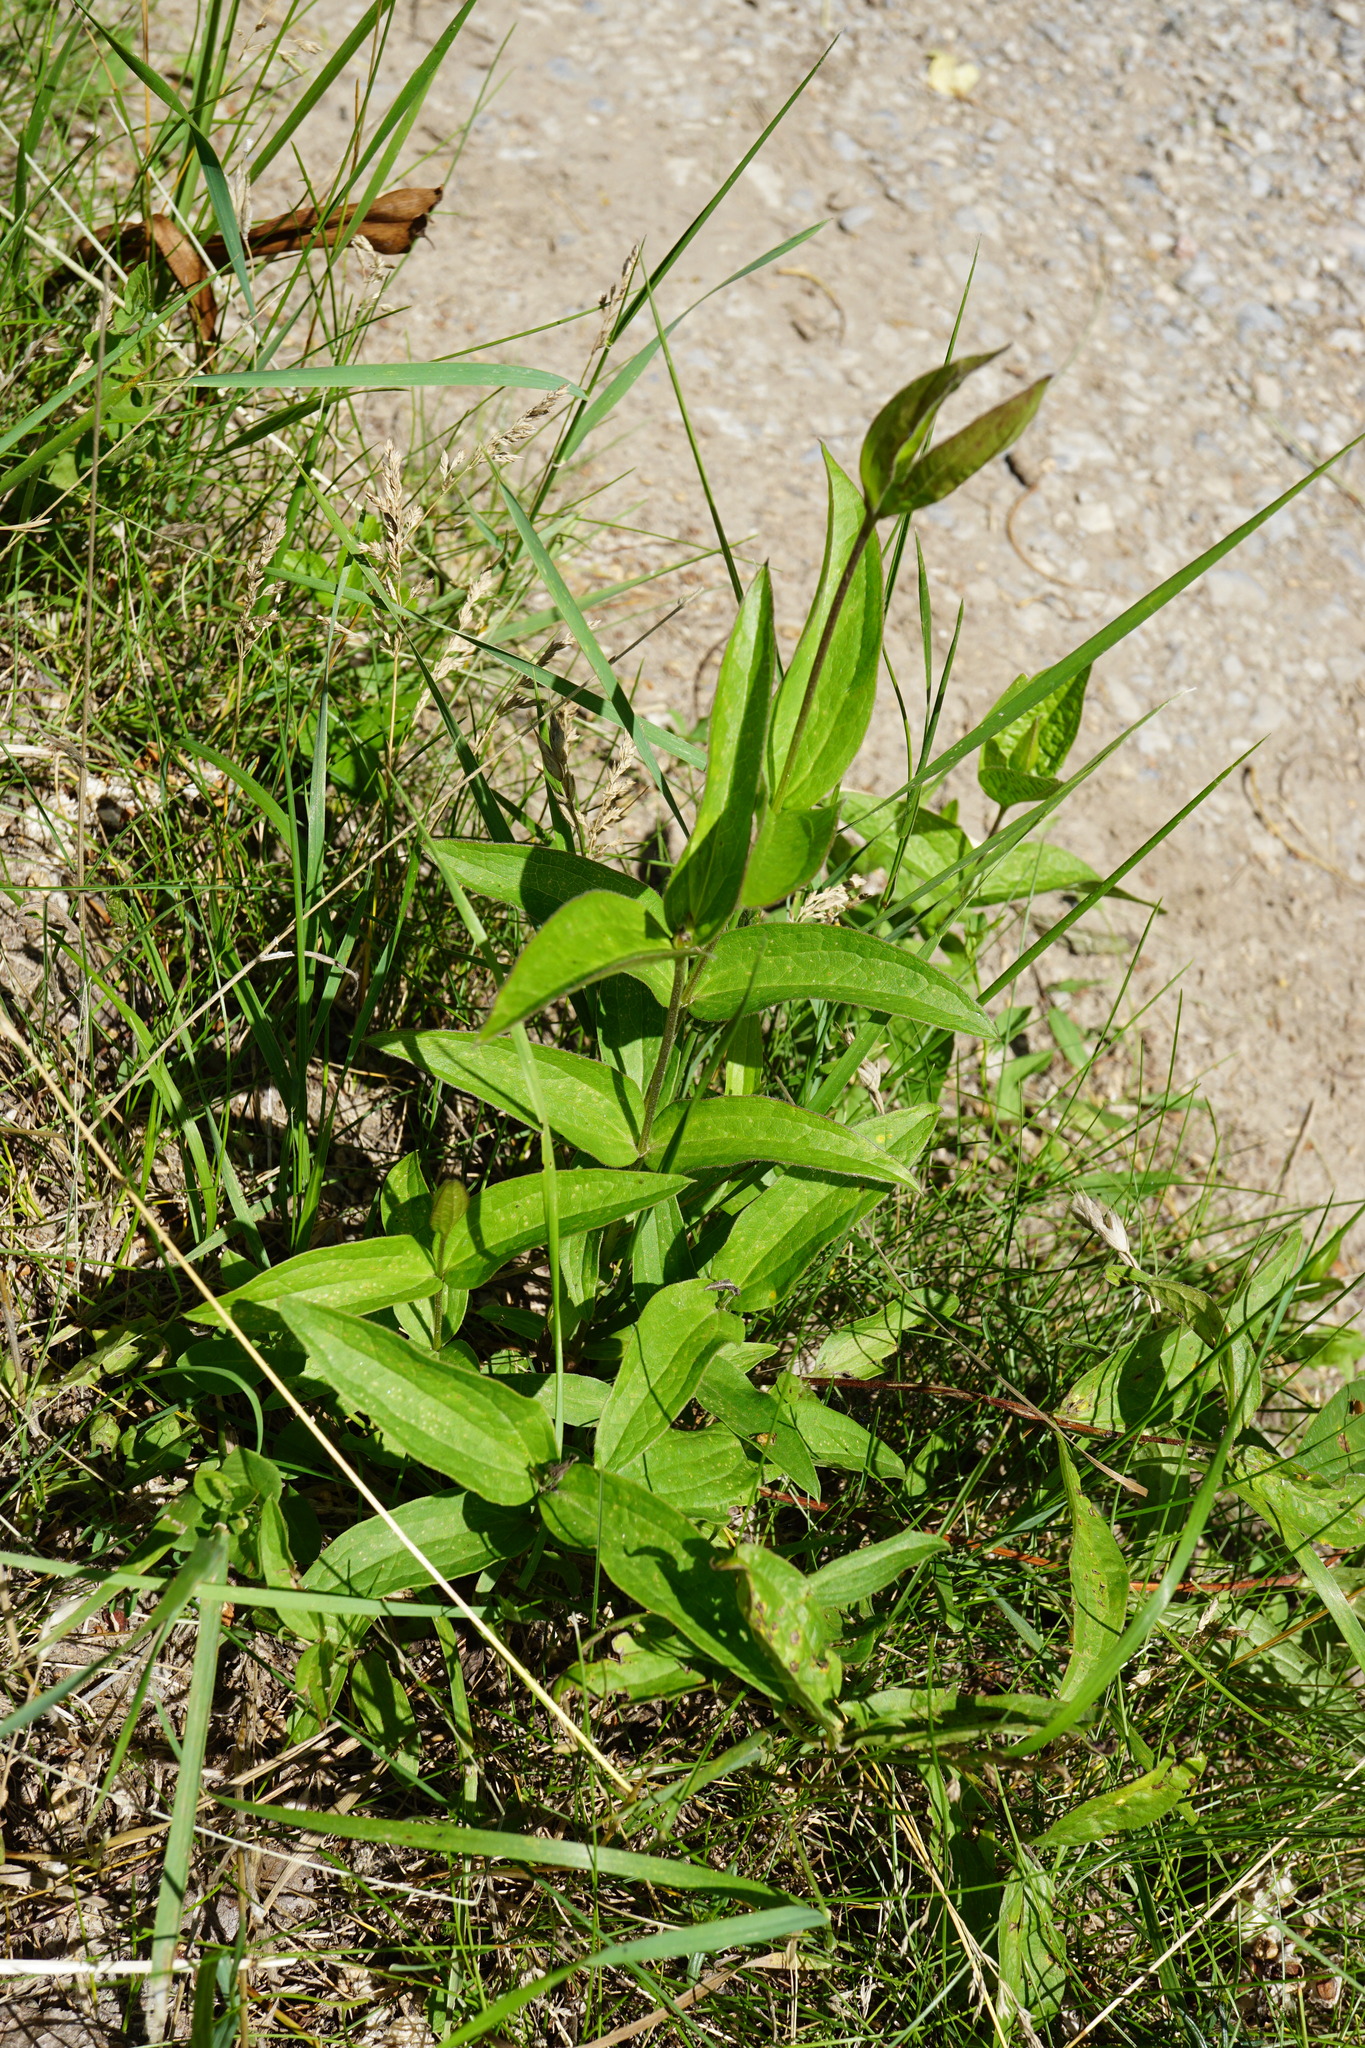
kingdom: Plantae
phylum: Tracheophyta
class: Magnoliopsida
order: Ranunculales
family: Ranunculaceae
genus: Clematis
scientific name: Clematis integrifolia
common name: Solitary clematis
